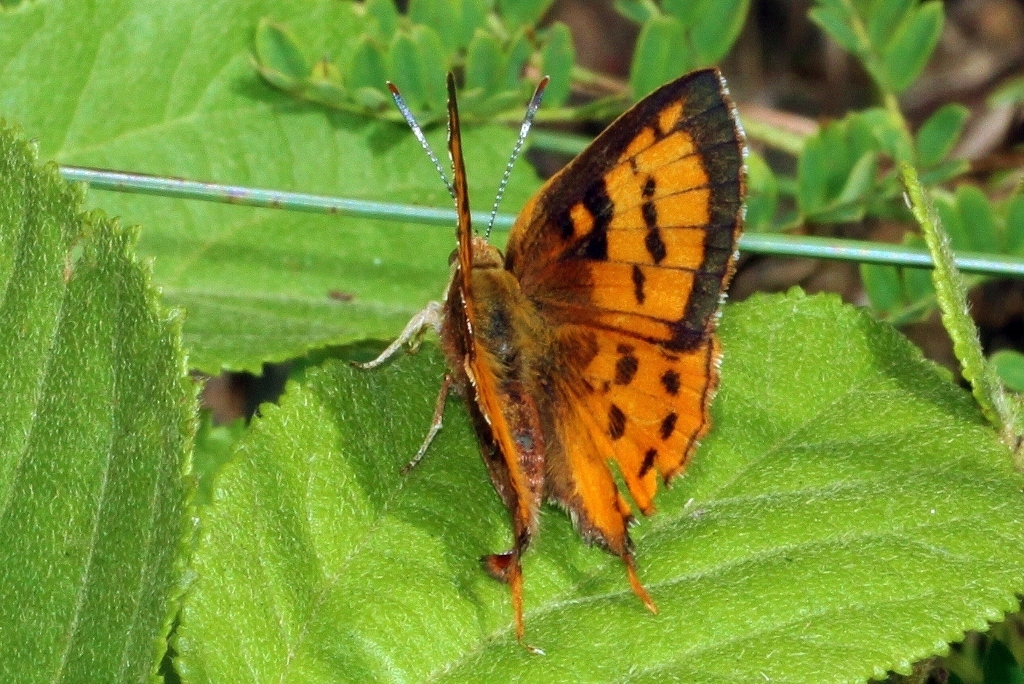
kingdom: Animalia
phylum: Arthropoda
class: Insecta
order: Lepidoptera
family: Lycaenidae
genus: Axiocerses
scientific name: Axiocerses perion
